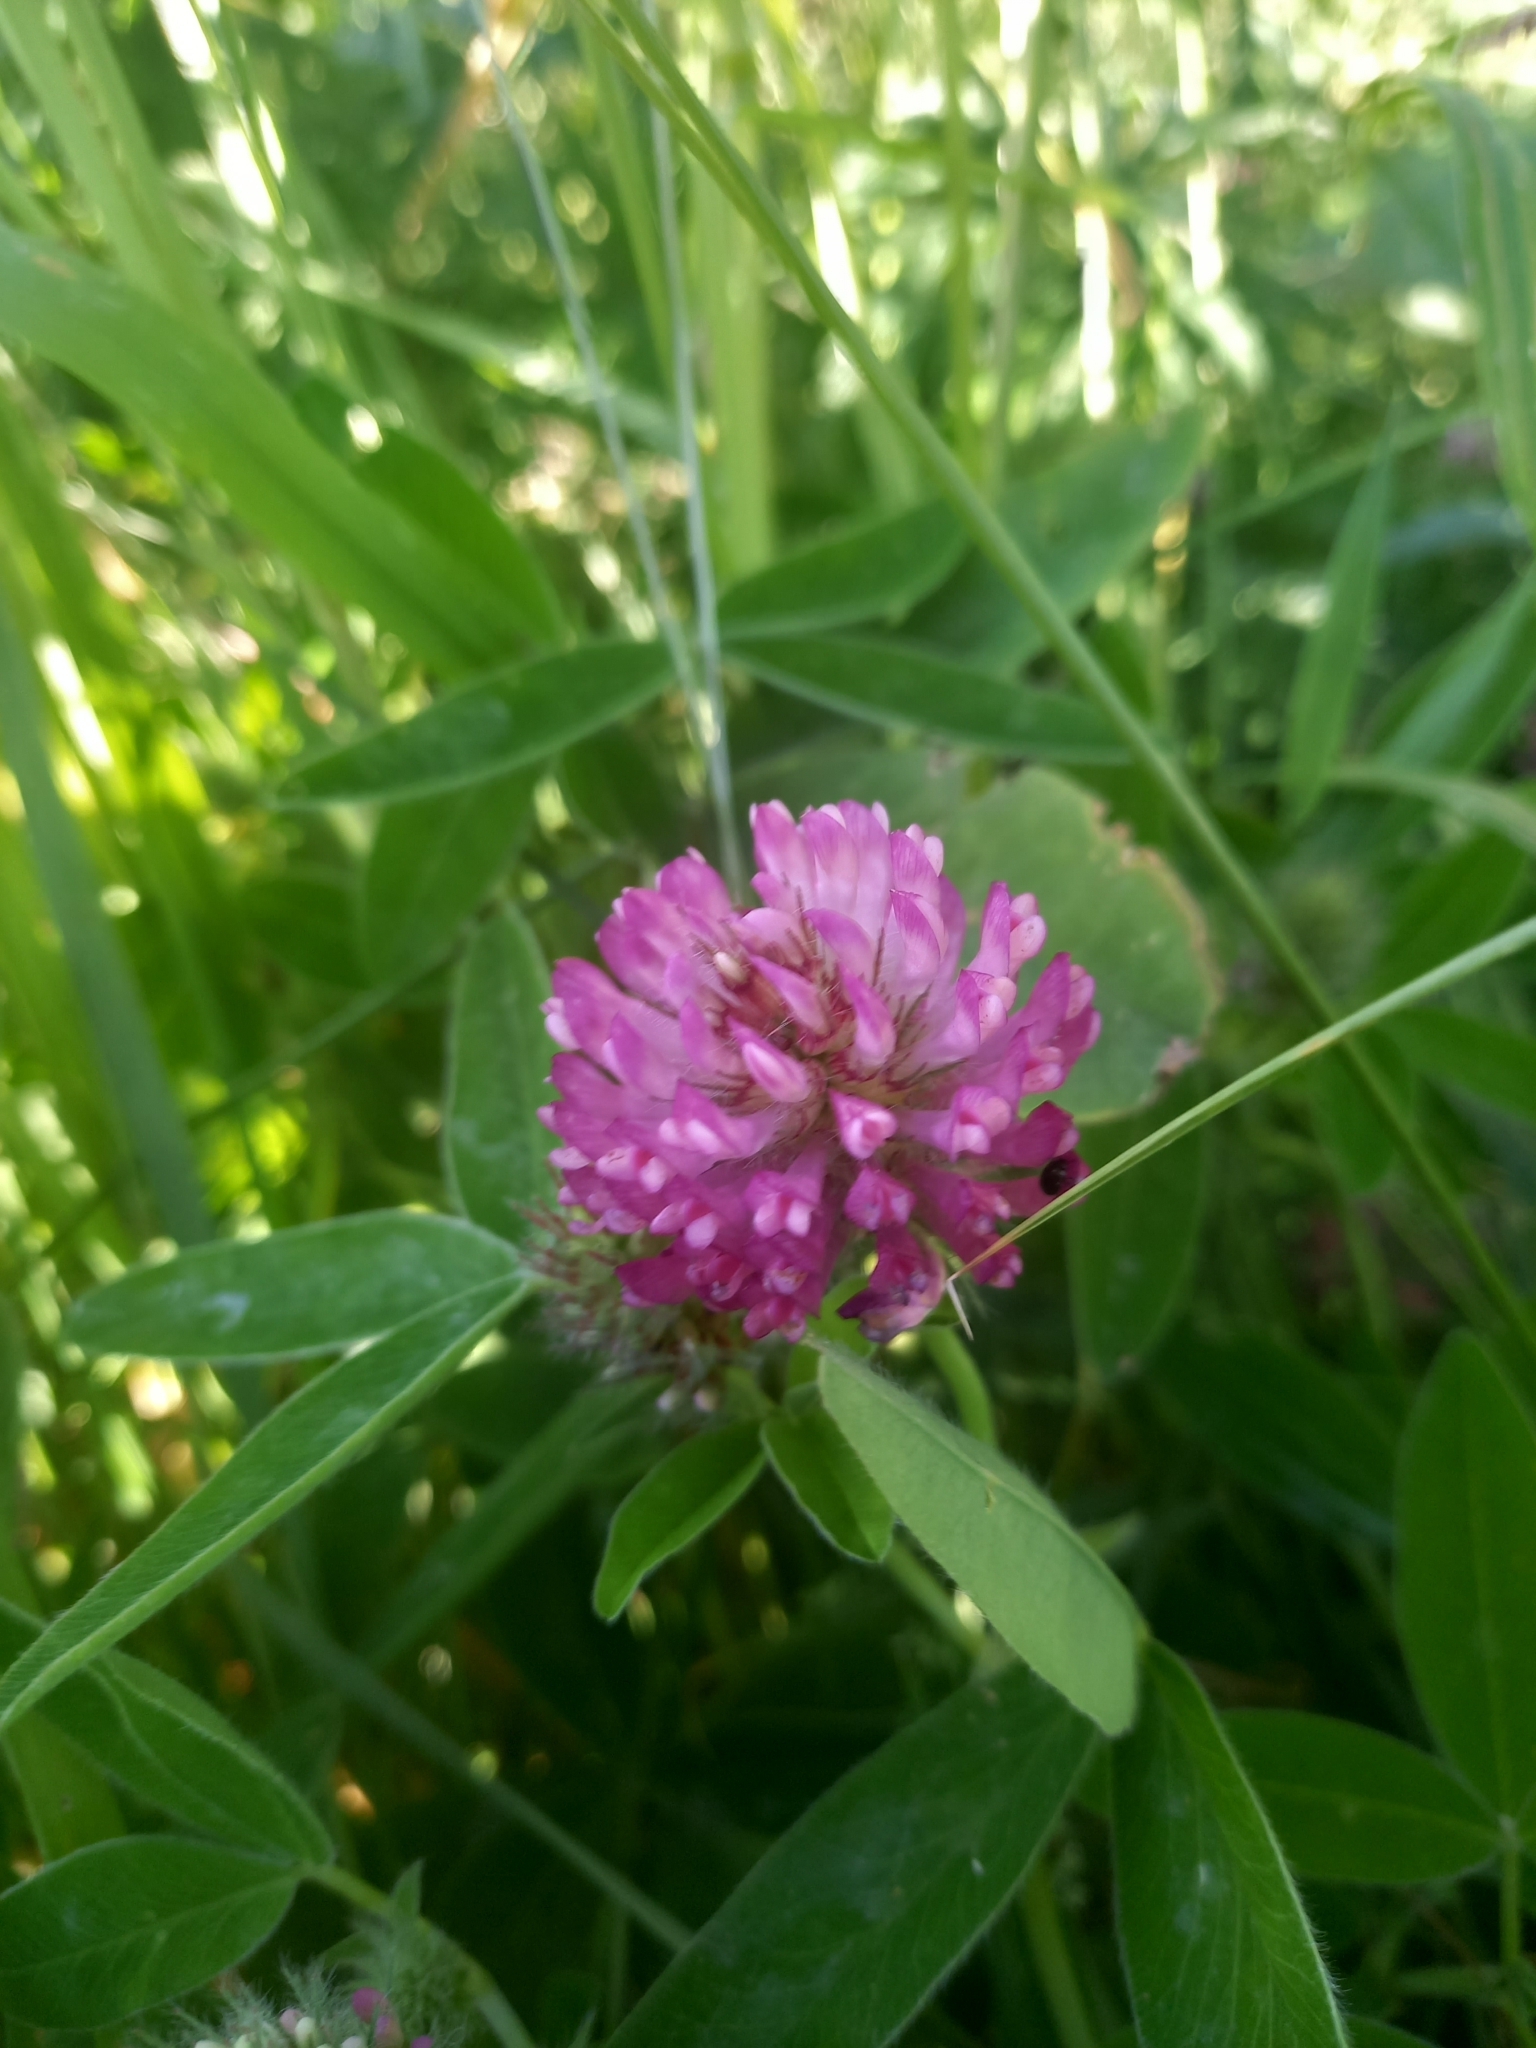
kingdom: Plantae
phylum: Tracheophyta
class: Magnoliopsida
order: Fabales
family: Fabaceae
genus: Trifolium
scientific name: Trifolium medium
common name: Zigzag clover
